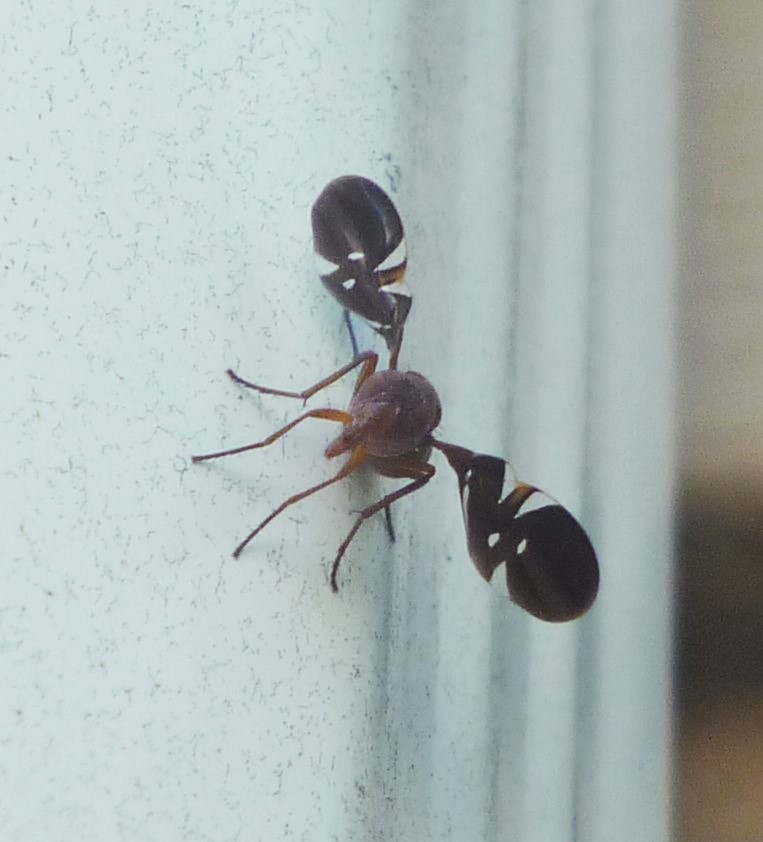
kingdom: Animalia
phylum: Arthropoda
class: Insecta
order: Diptera
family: Ulidiidae
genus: Delphinia
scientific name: Delphinia picta
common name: Common picture-winged fly
